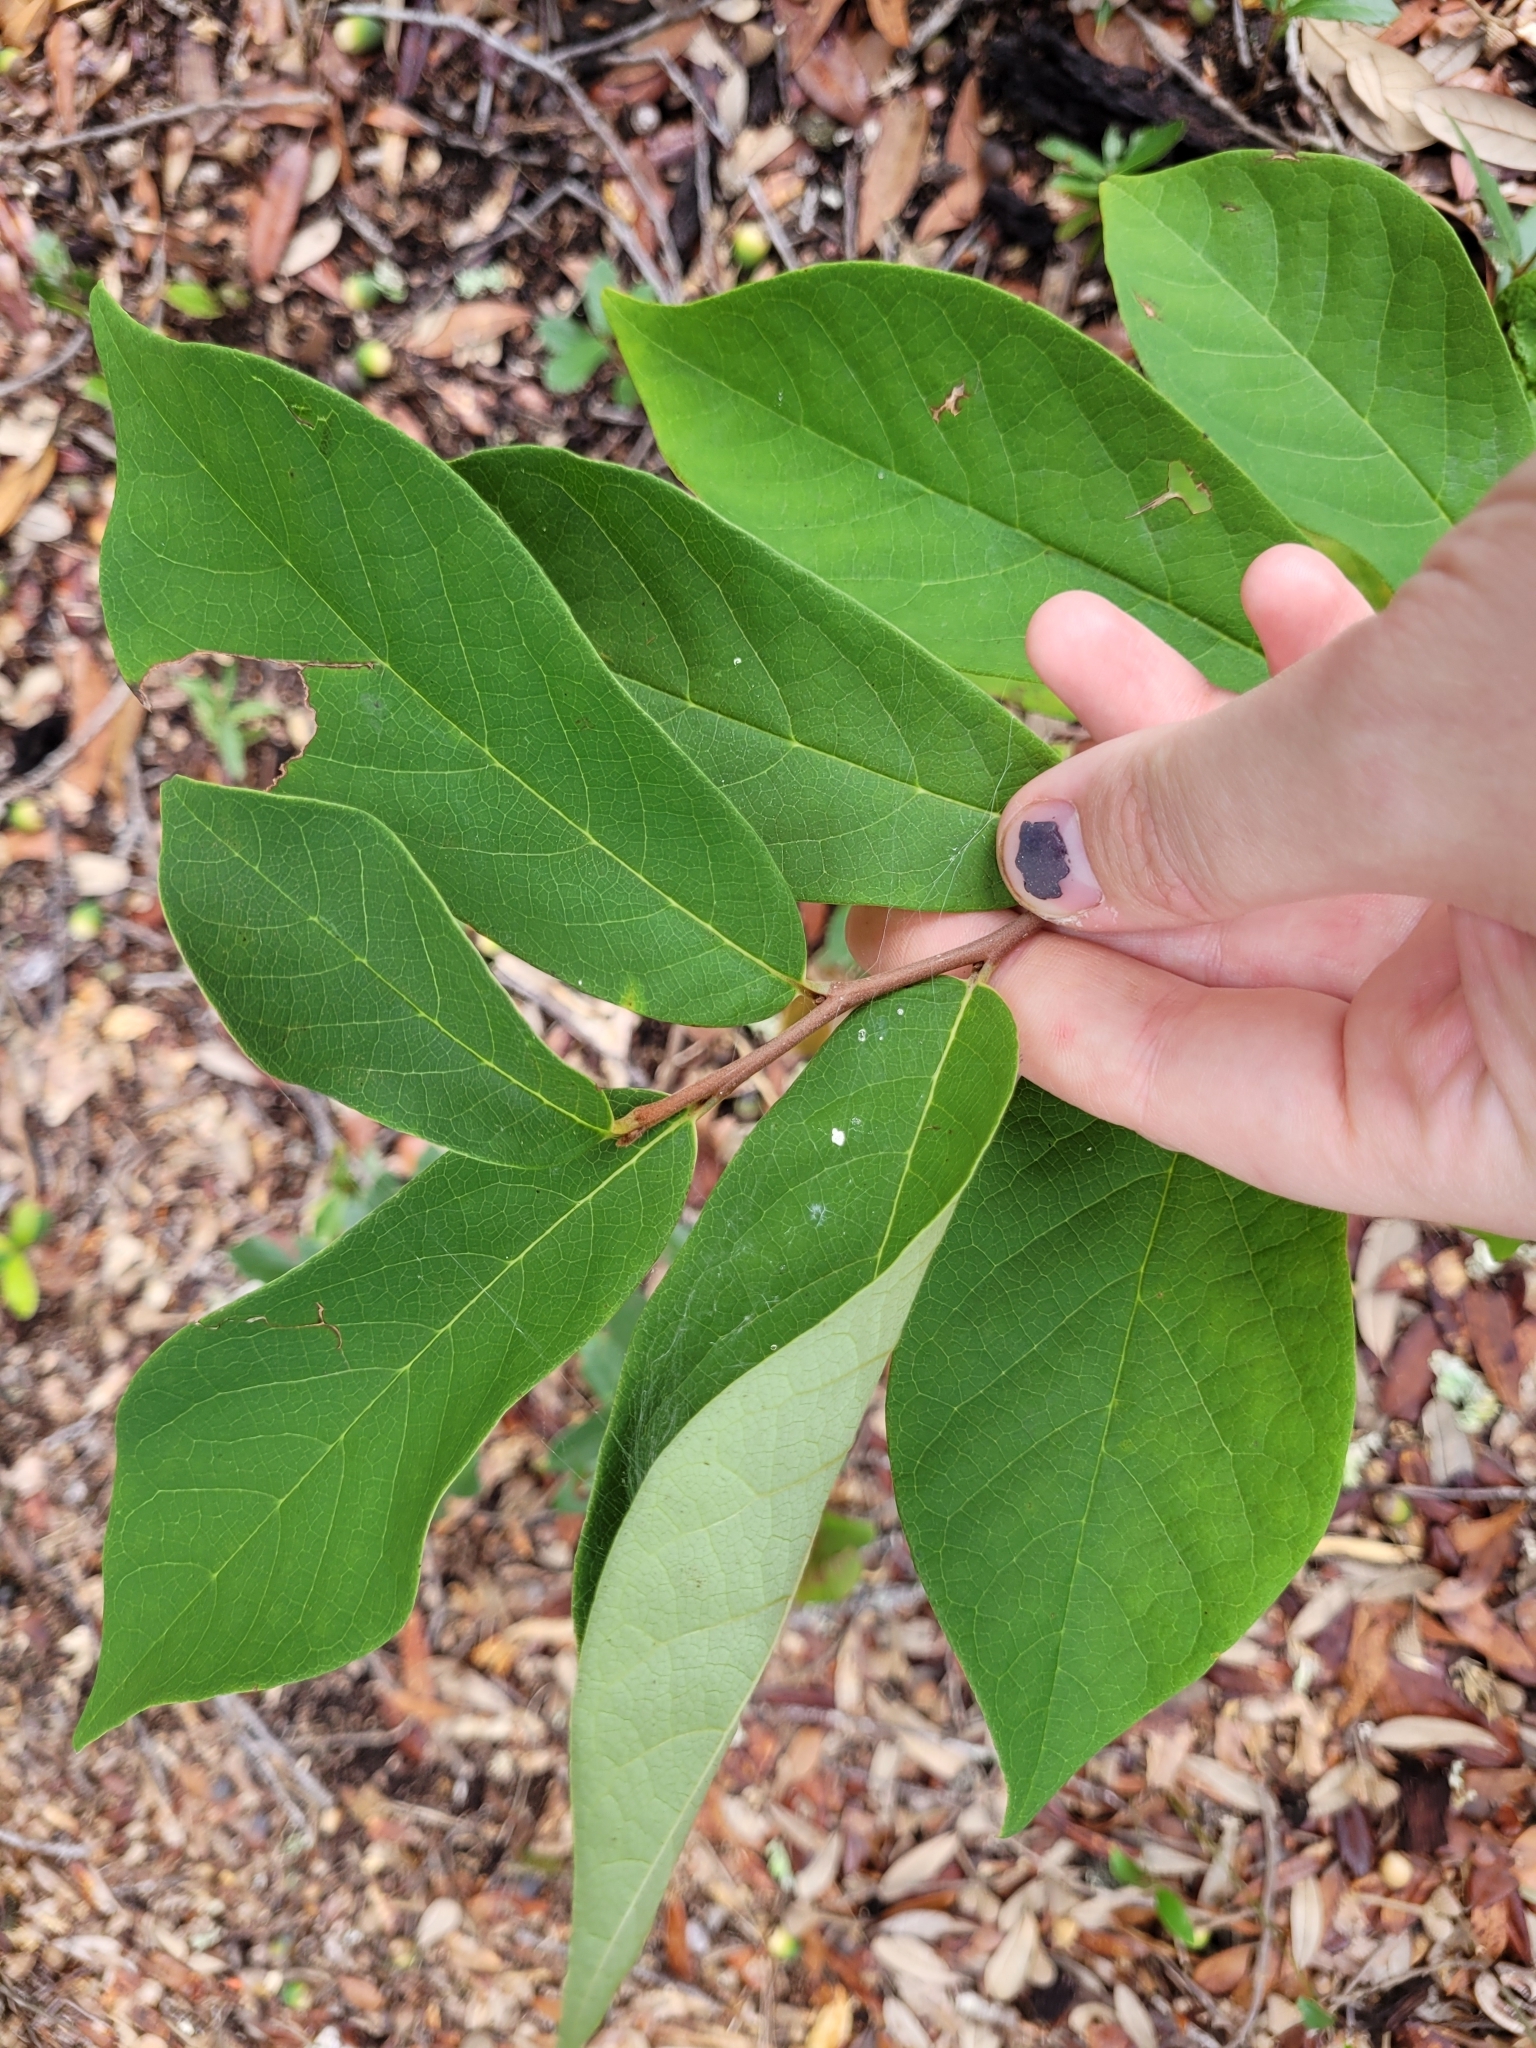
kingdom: Plantae
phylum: Tracheophyta
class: Magnoliopsida
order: Magnoliales
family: Annonaceae
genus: Asimina
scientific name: Asimina parviflora
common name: Dwarf pawpaw
